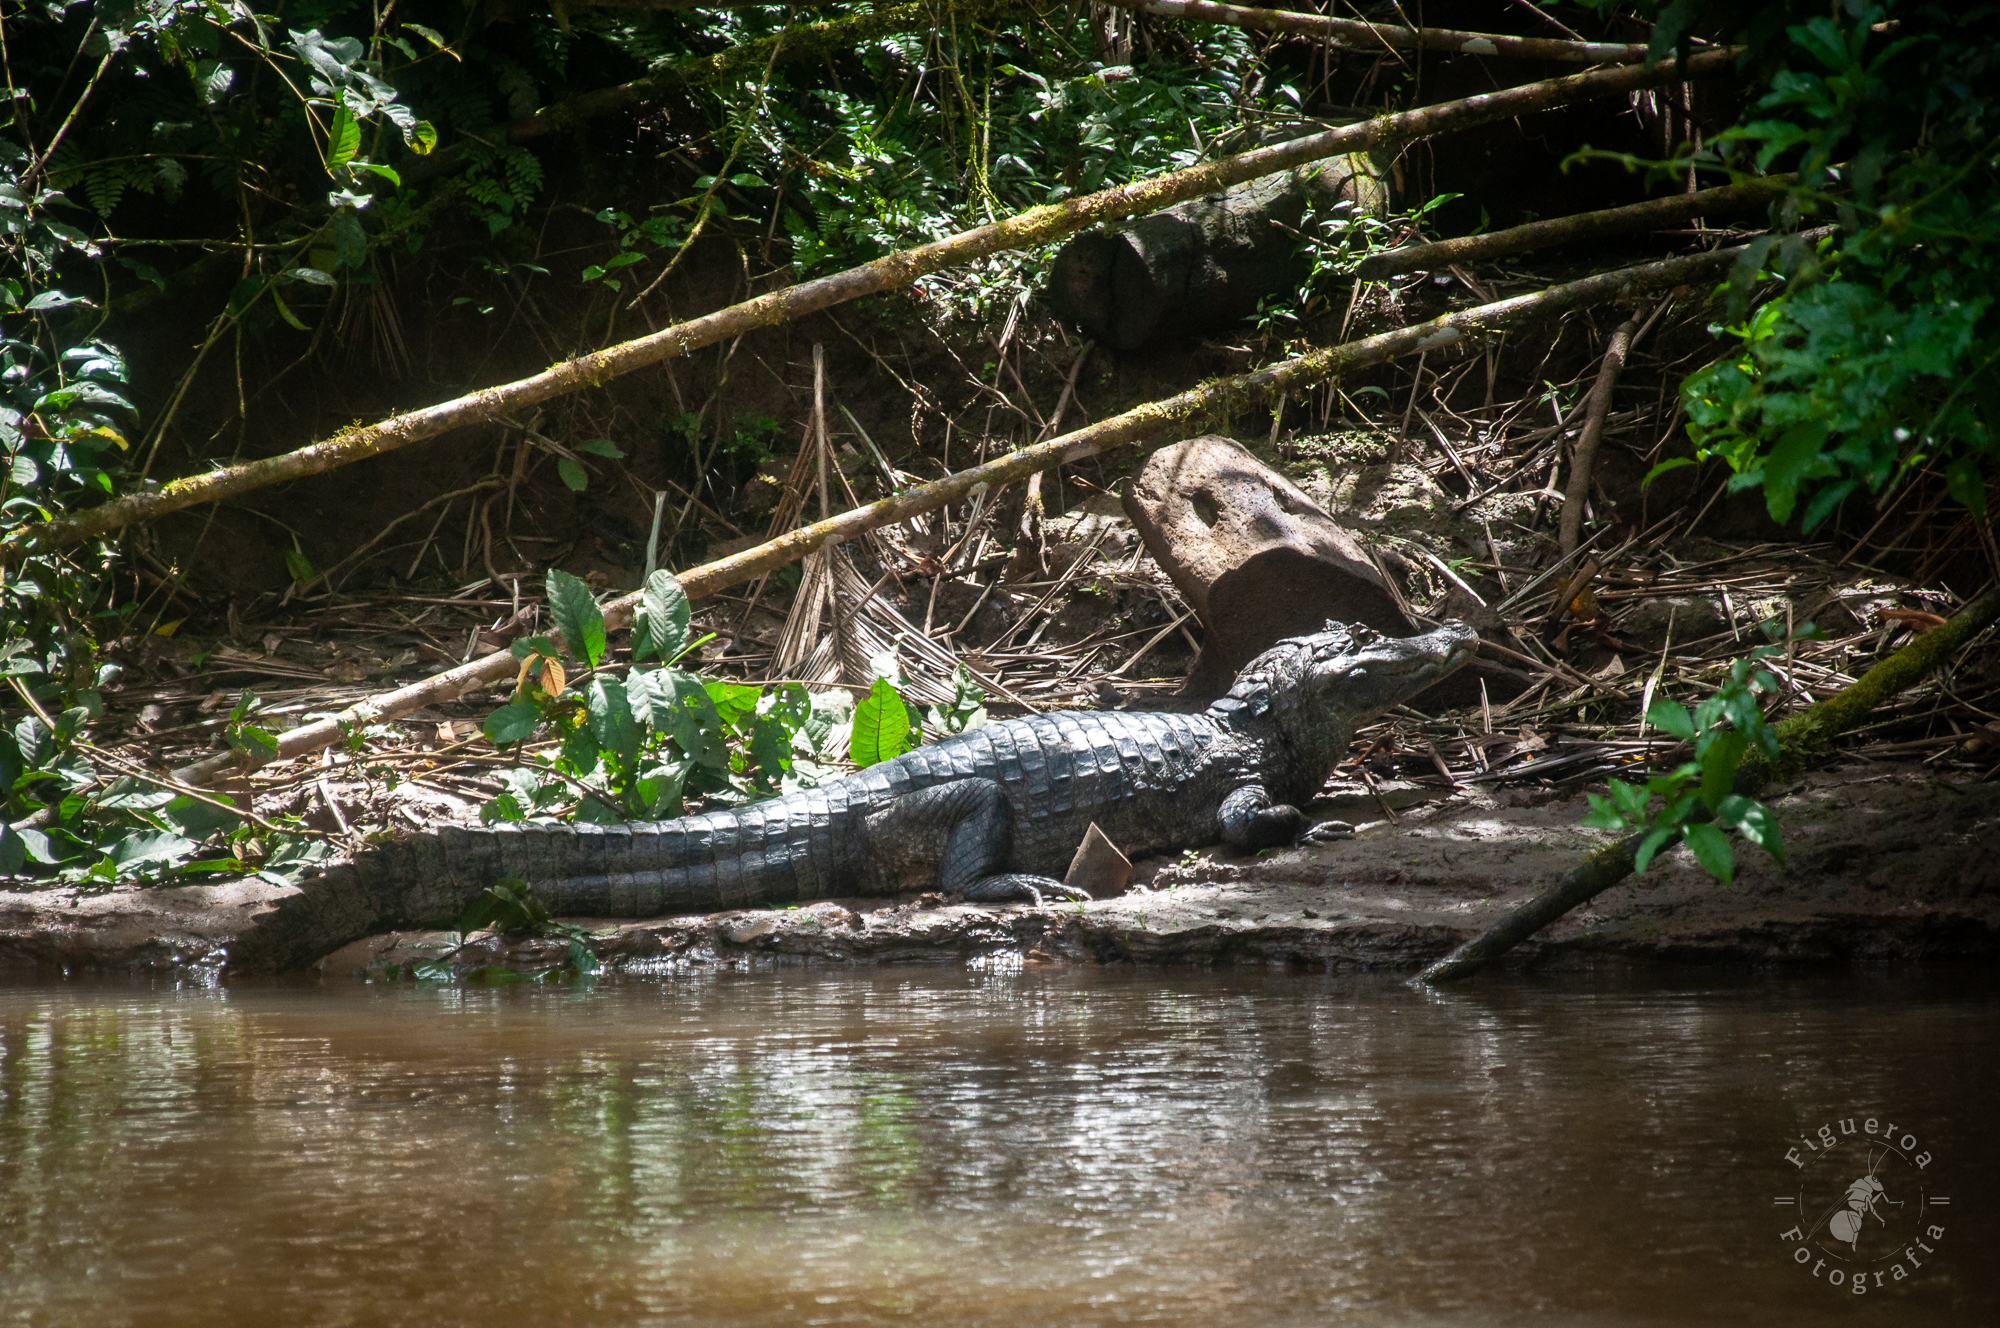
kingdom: Animalia
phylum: Chordata
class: Crocodylia
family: Alligatoridae
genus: Caiman
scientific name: Caiman crocodilus
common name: Common caiman
